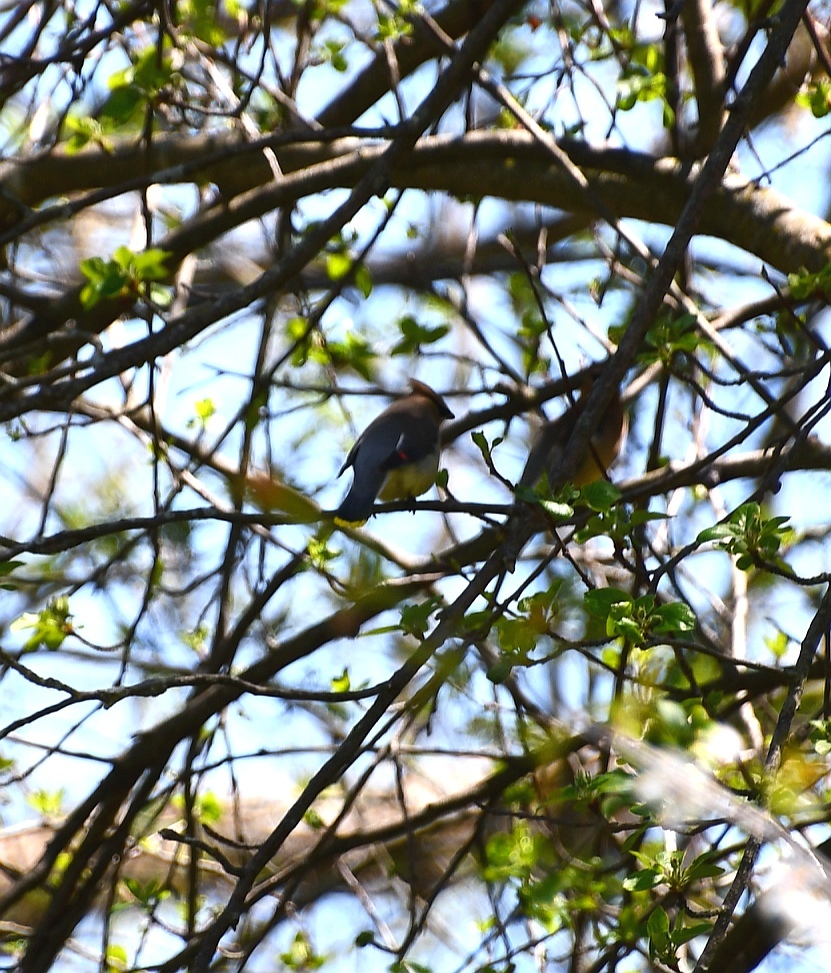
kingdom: Animalia
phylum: Chordata
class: Aves
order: Passeriformes
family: Bombycillidae
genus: Bombycilla
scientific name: Bombycilla cedrorum
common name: Cedar waxwing
